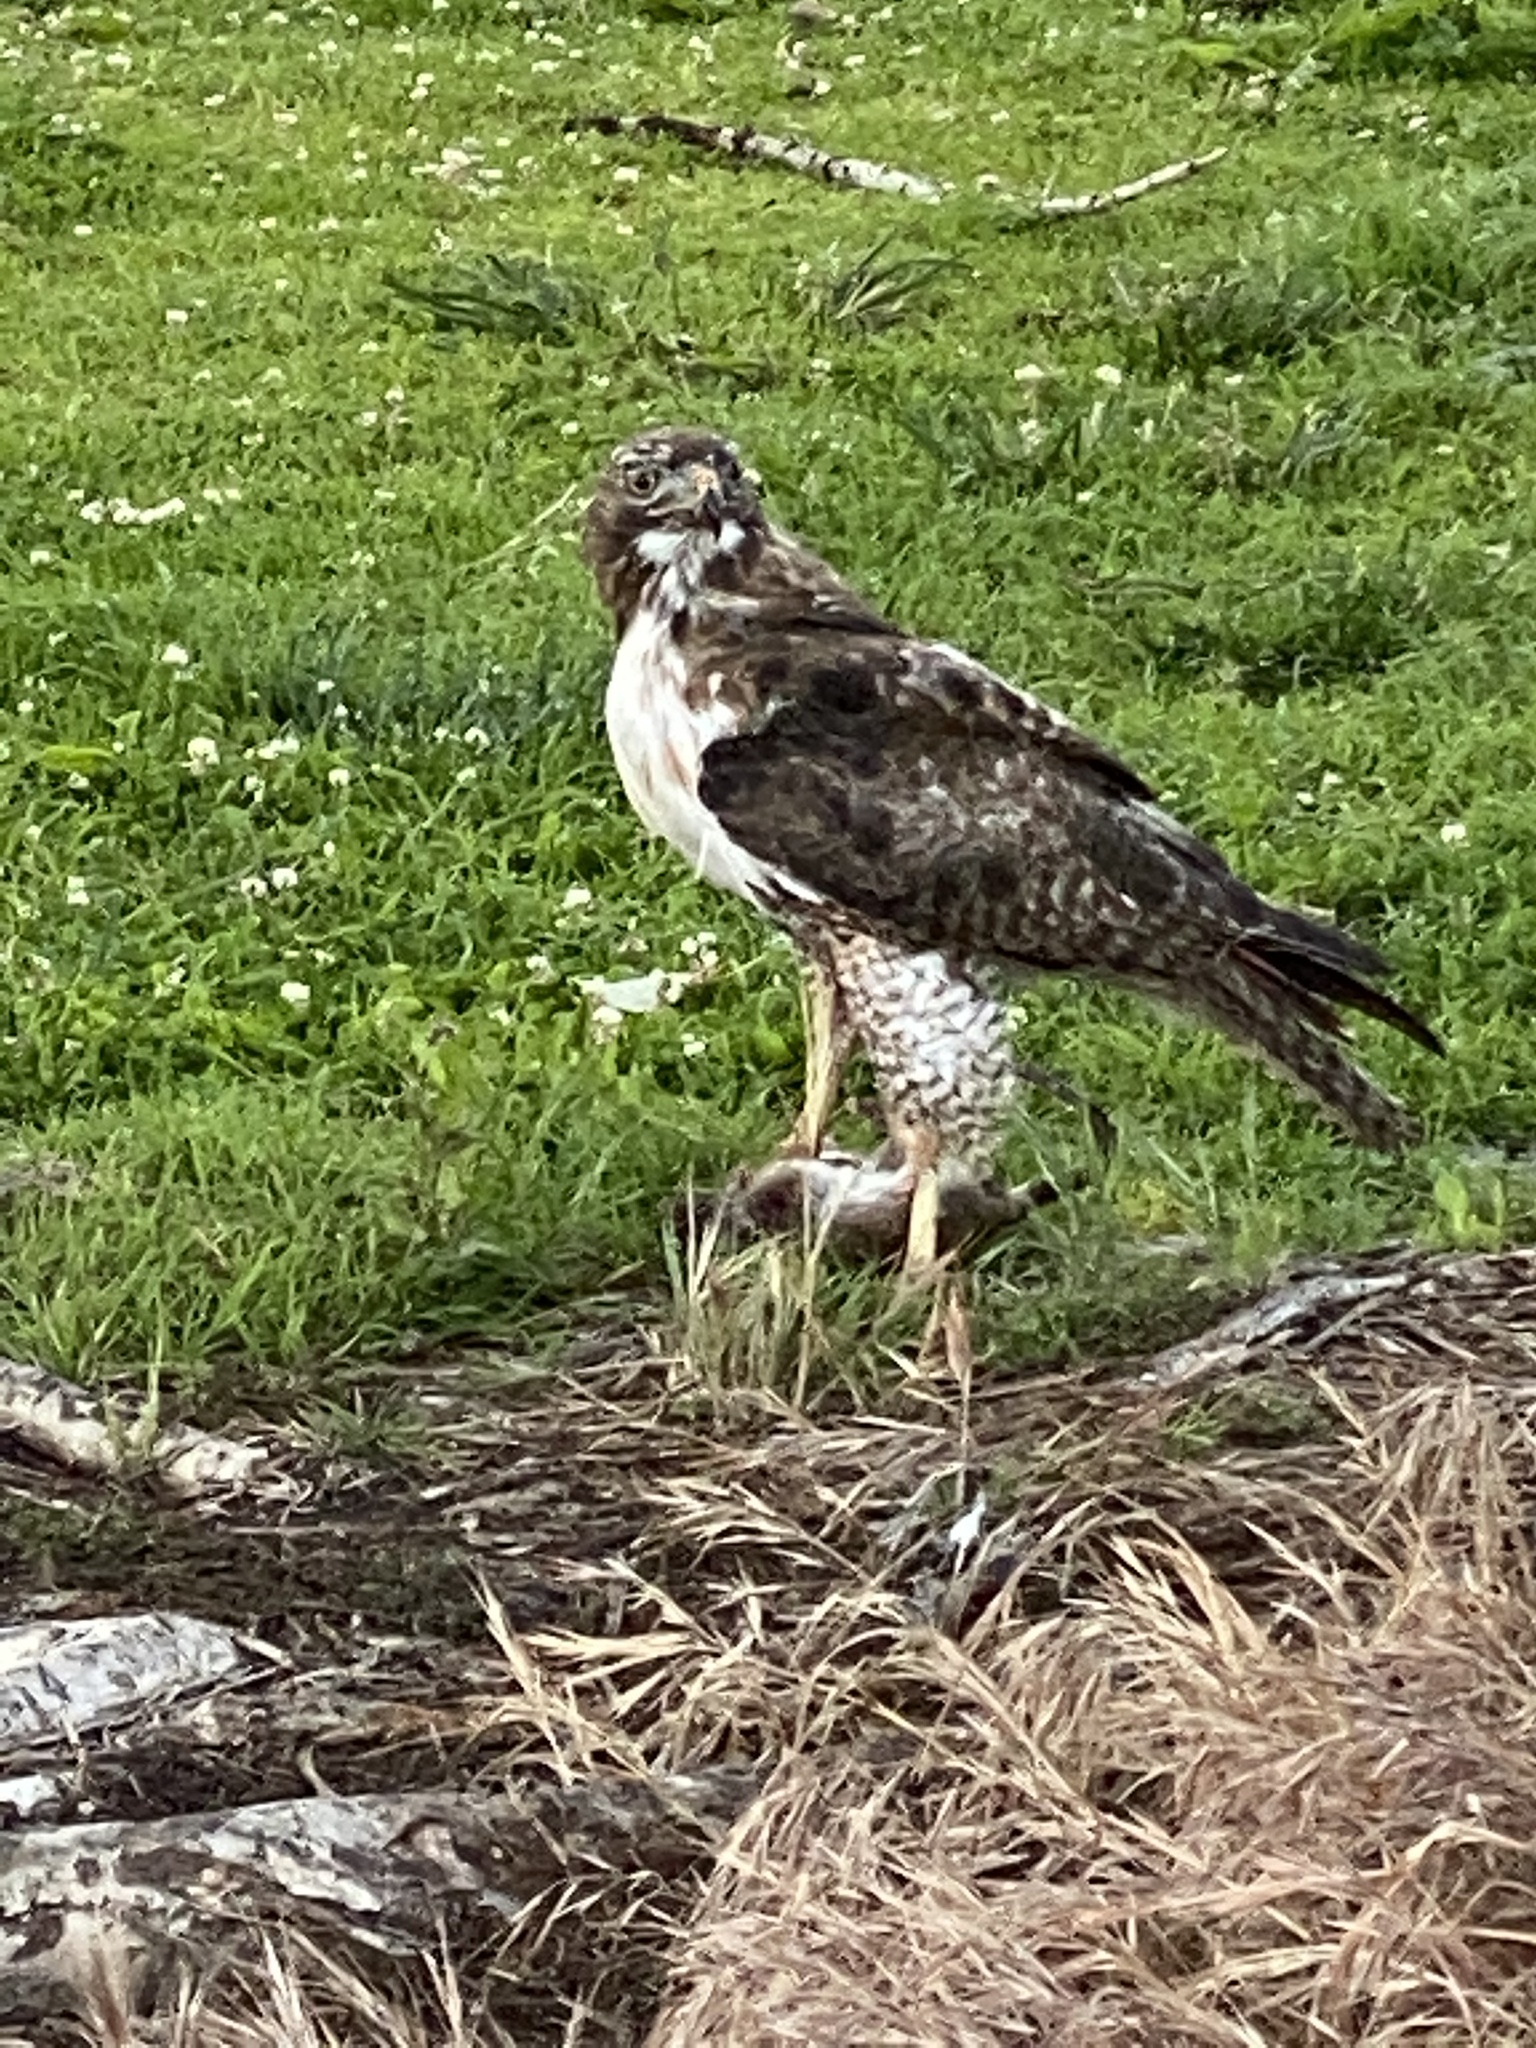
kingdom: Animalia
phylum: Chordata
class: Aves
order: Accipitriformes
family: Accipitridae
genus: Buteo
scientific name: Buteo jamaicensis
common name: Red-tailed hawk
